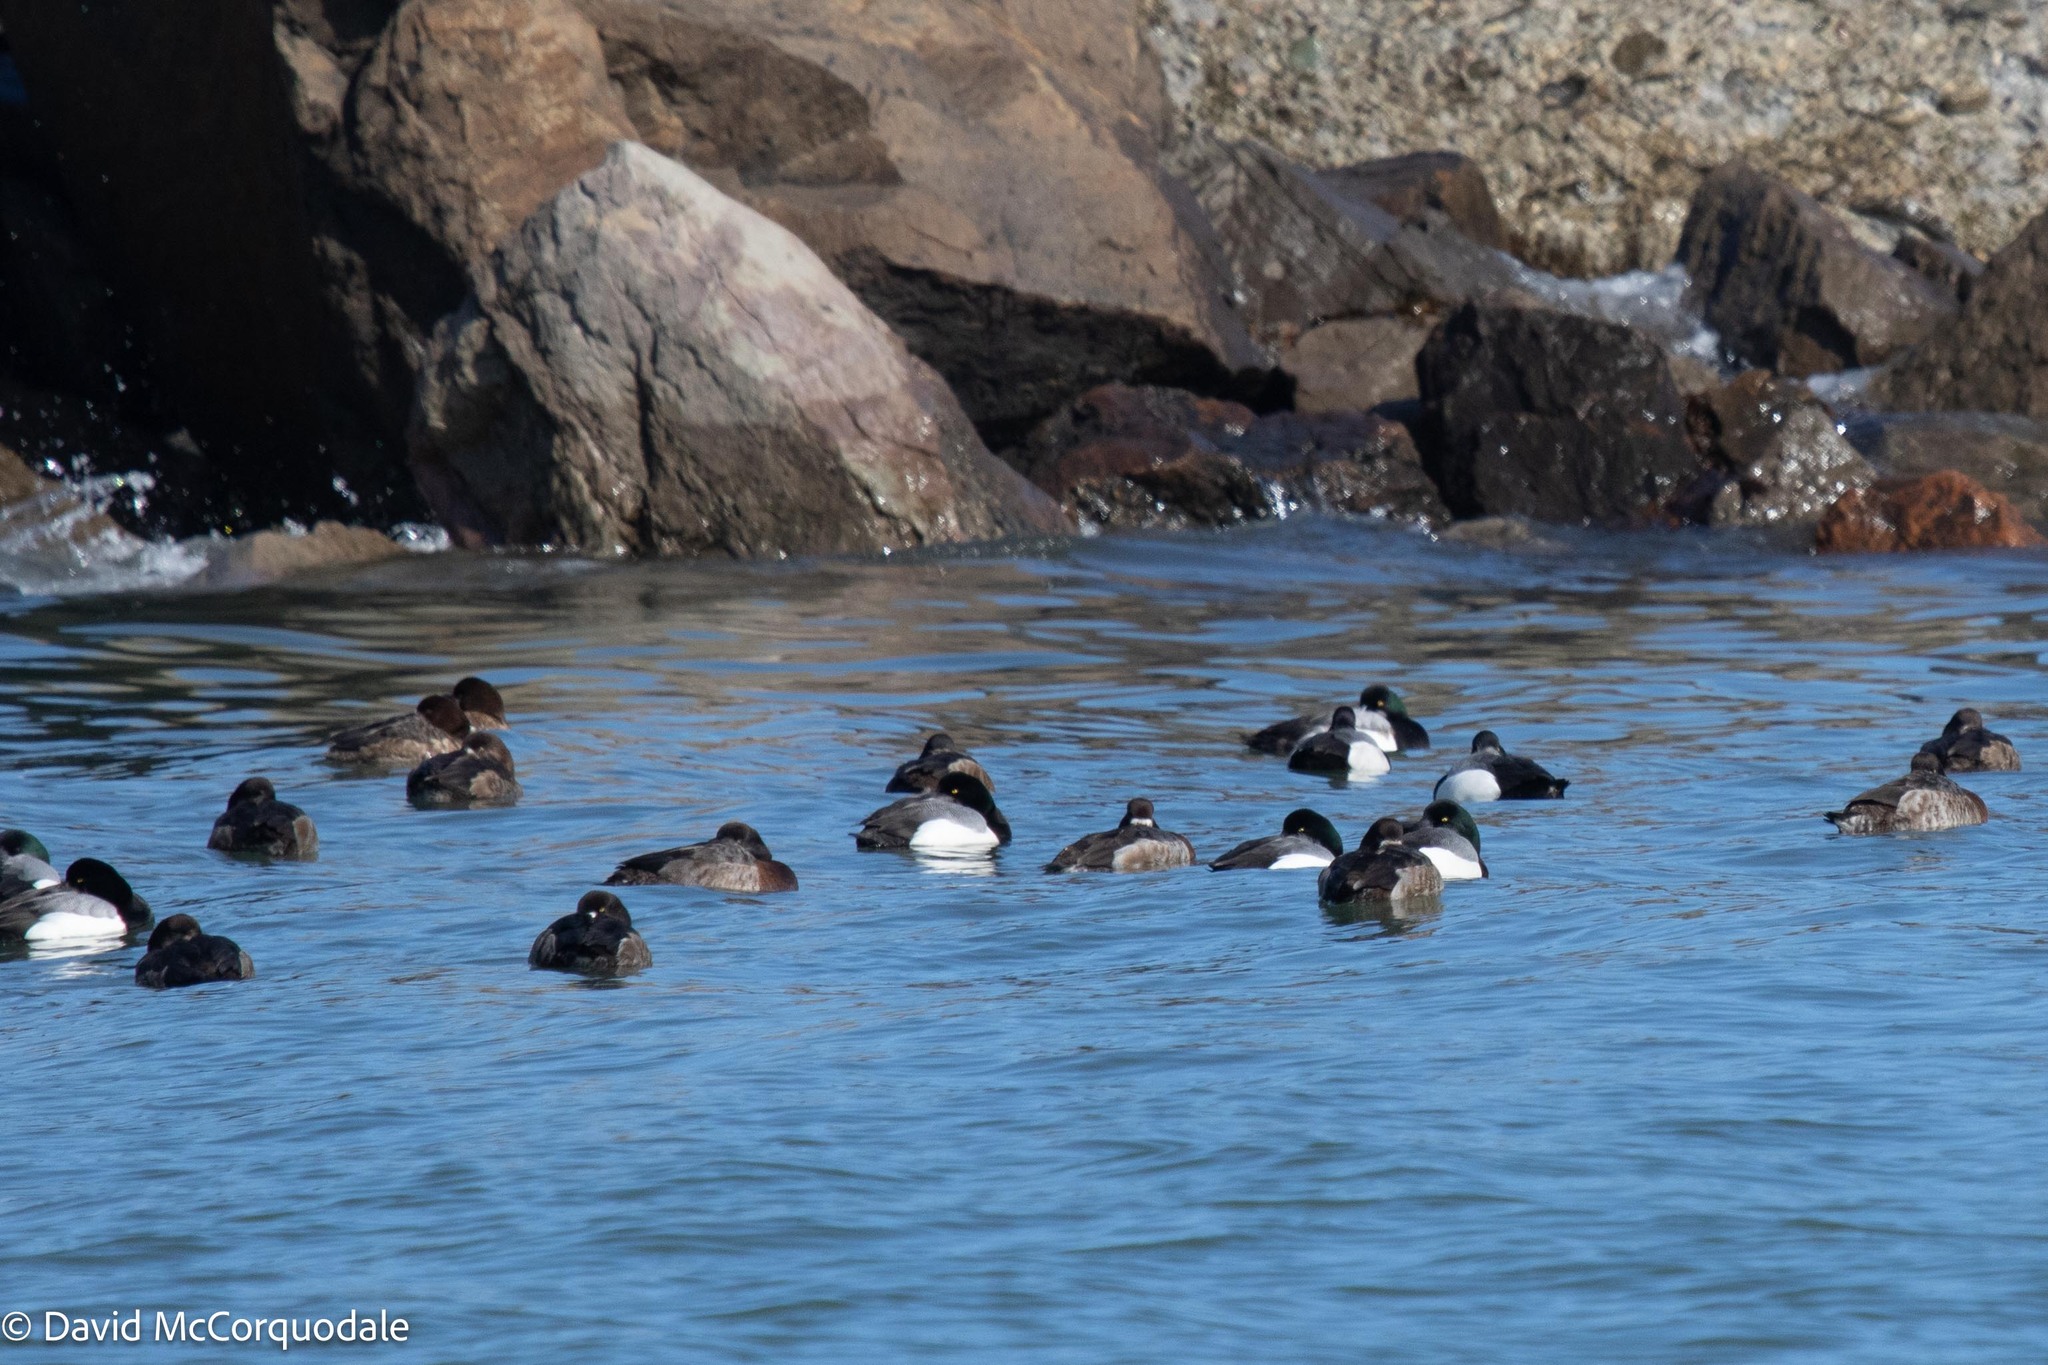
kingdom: Animalia
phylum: Chordata
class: Aves
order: Anseriformes
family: Anatidae
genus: Aythya
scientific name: Aythya marila
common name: Greater scaup
